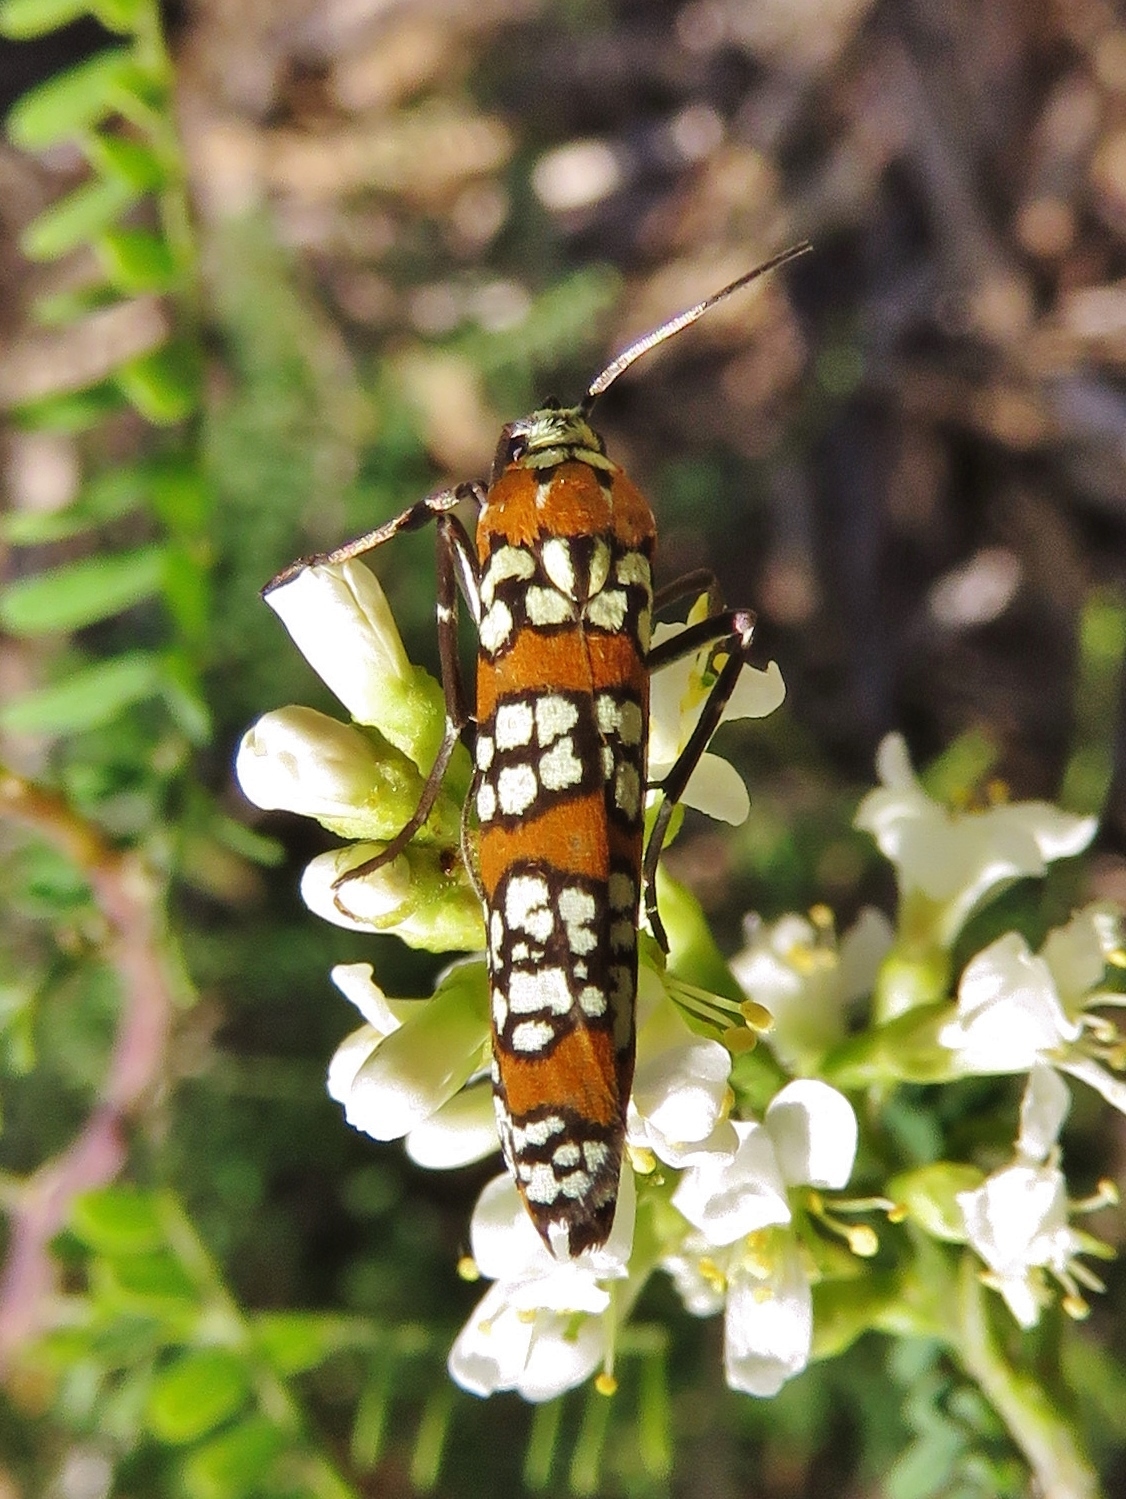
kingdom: Animalia
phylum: Arthropoda
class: Insecta
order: Lepidoptera
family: Attevidae
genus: Atteva
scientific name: Atteva punctella
